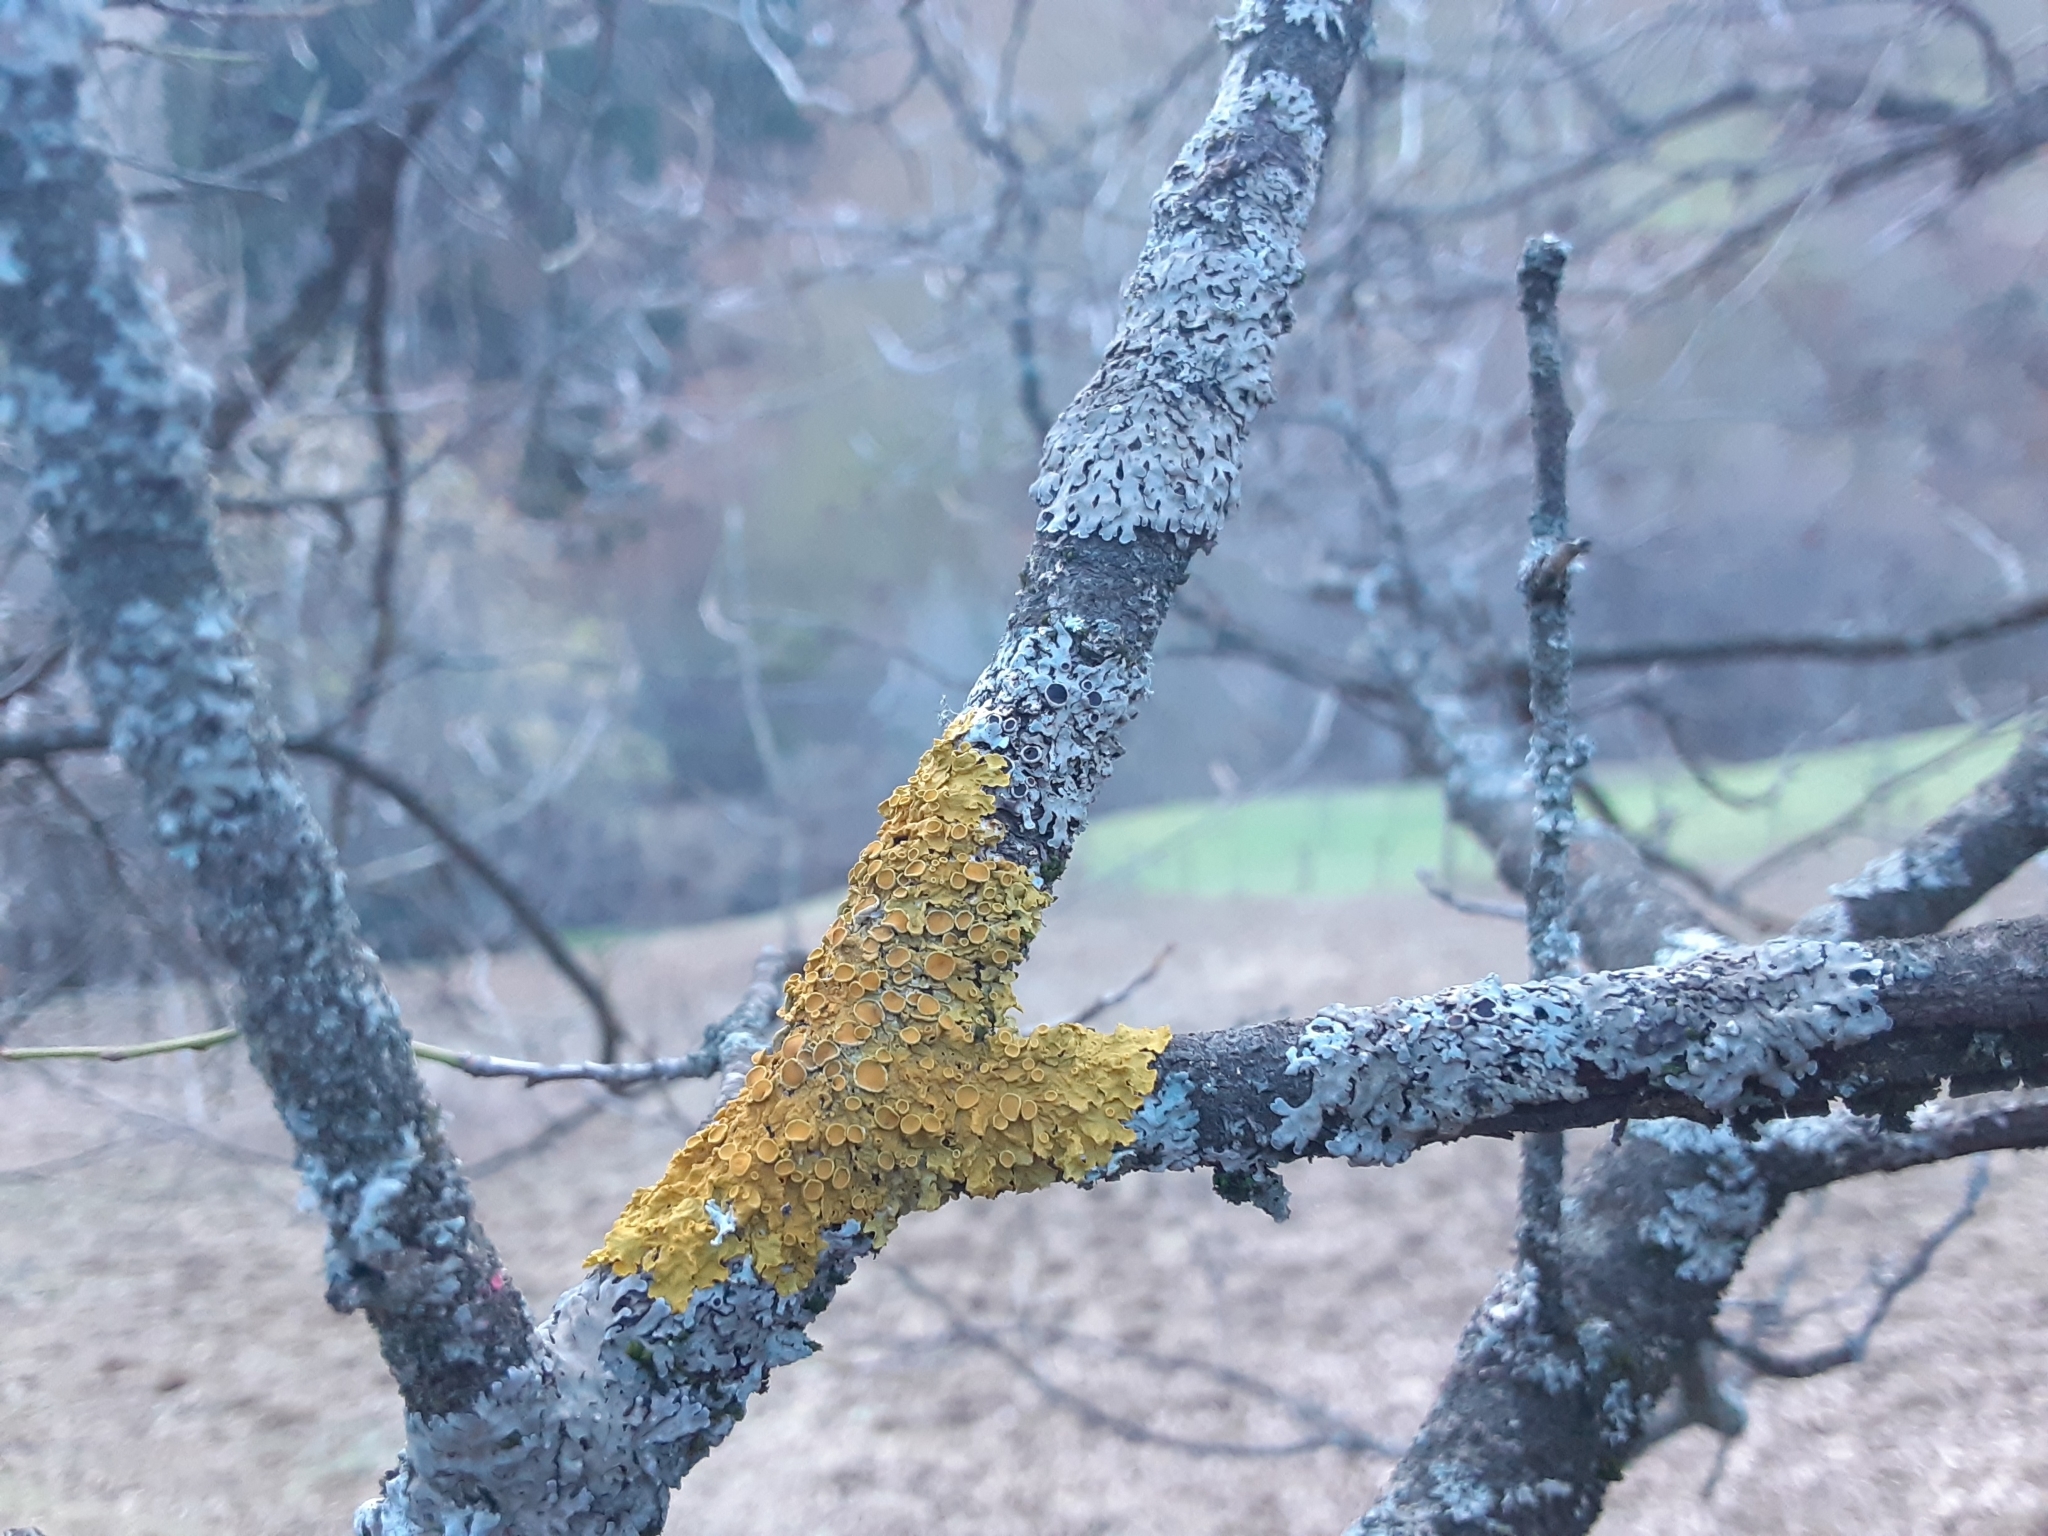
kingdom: Fungi
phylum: Ascomycota
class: Lecanoromycetes
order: Teloschistales
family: Teloschistaceae
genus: Xanthoria
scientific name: Xanthoria parietina
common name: Common orange lichen
